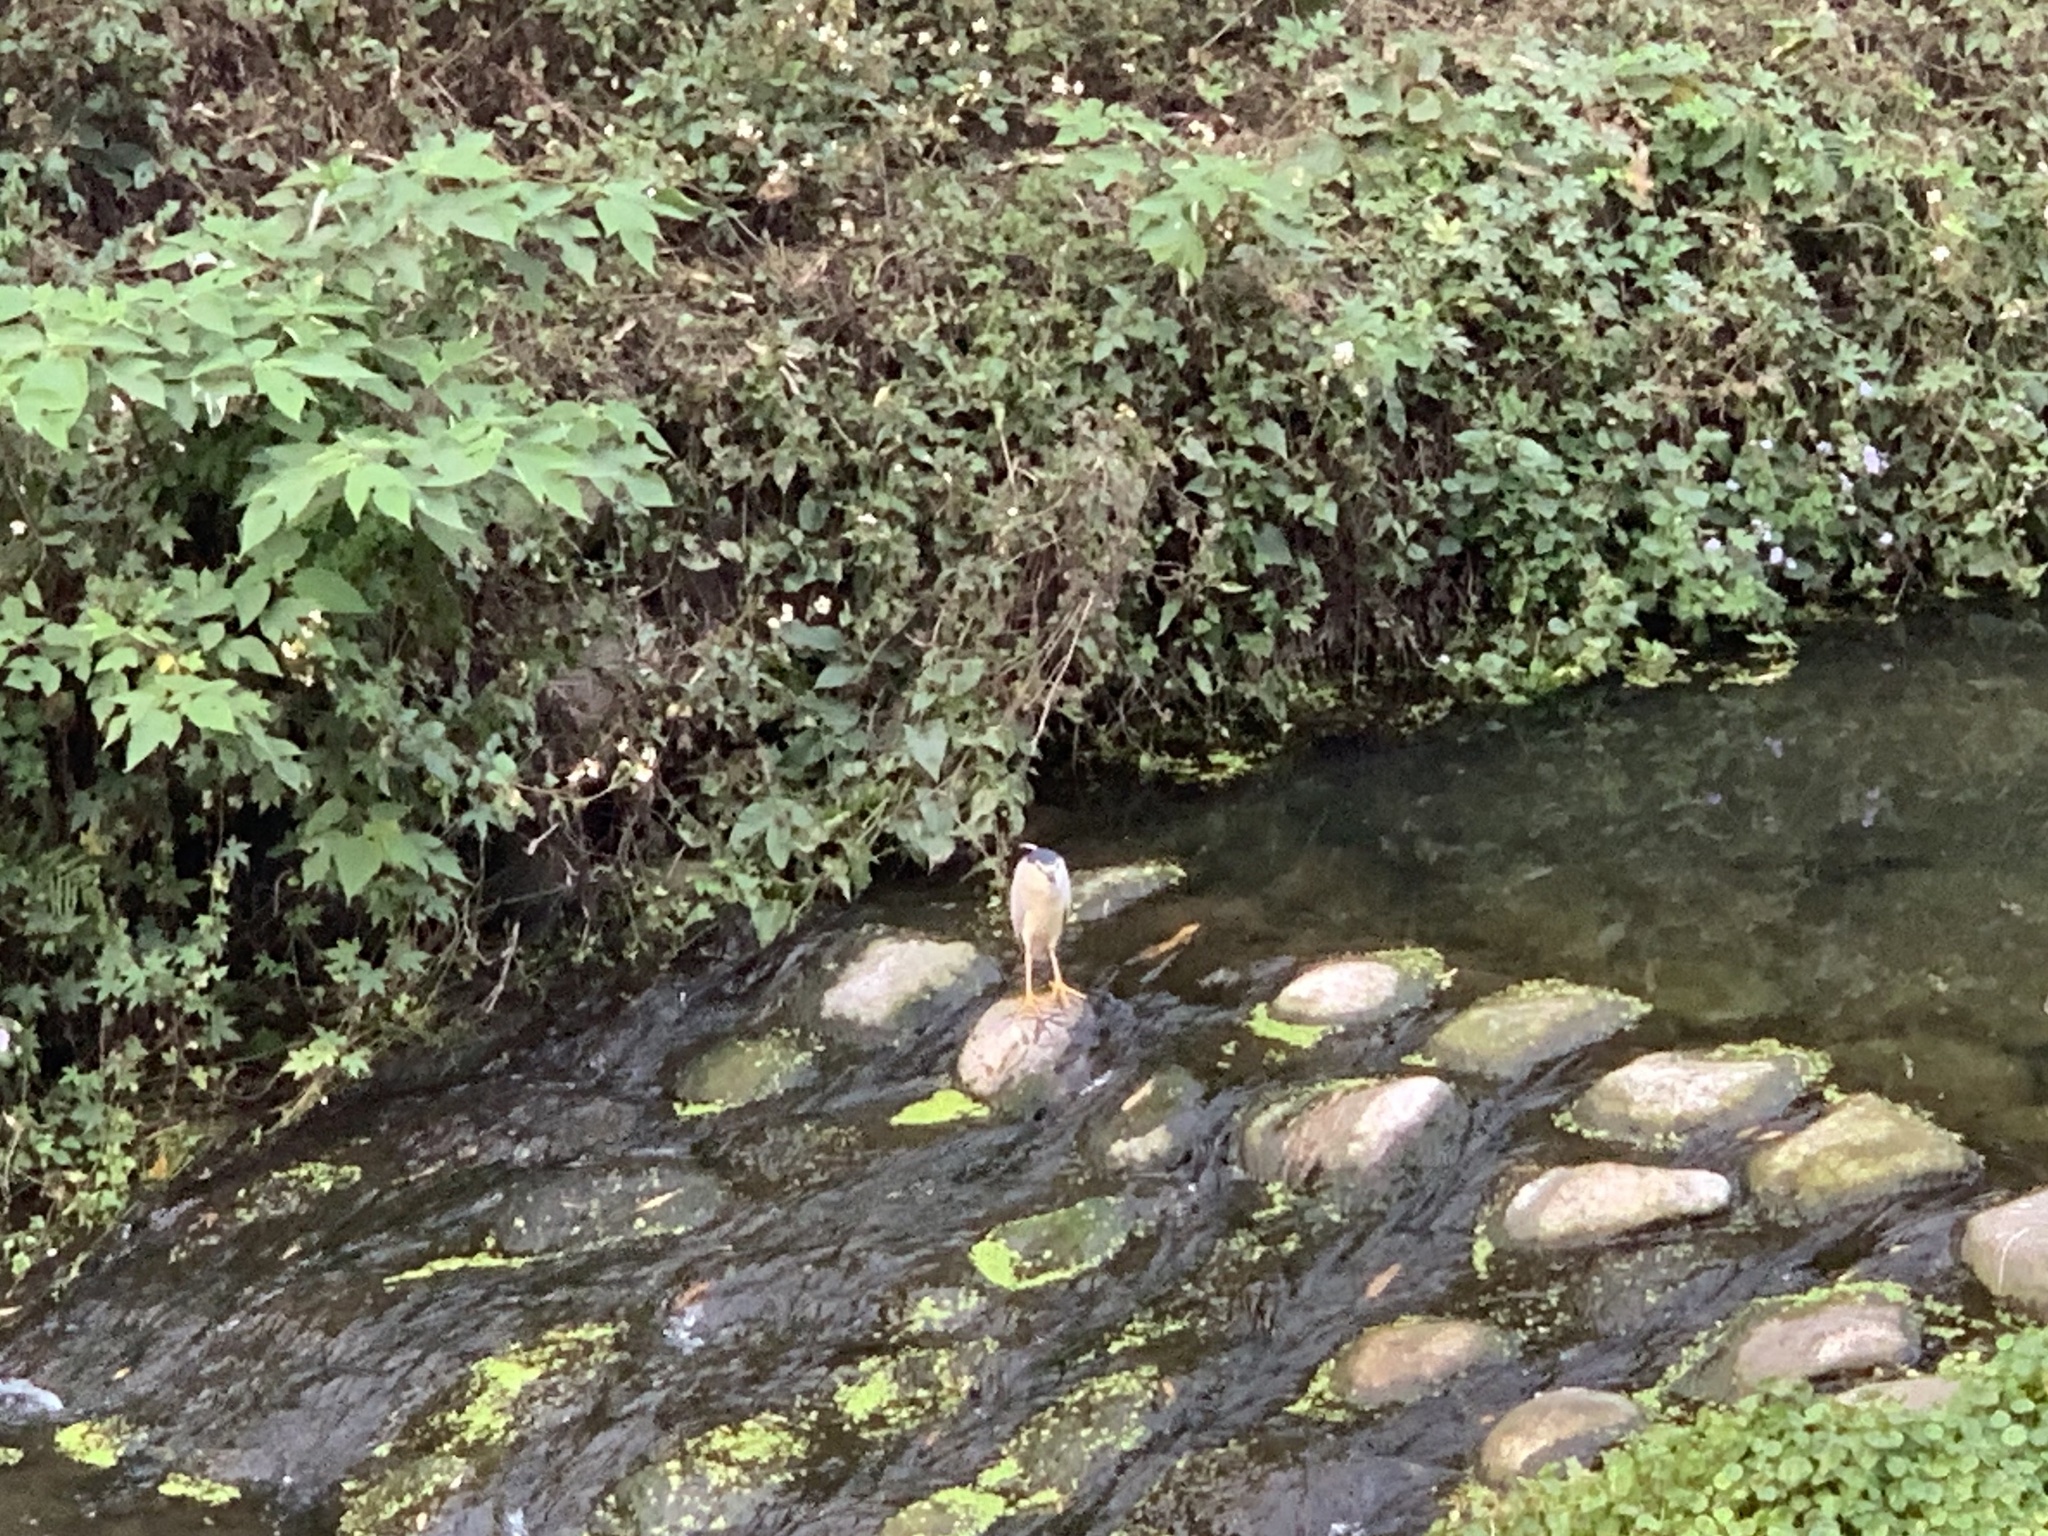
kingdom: Animalia
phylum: Chordata
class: Aves
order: Pelecaniformes
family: Ardeidae
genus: Nycticorax
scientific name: Nycticorax nycticorax
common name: Black-crowned night heron
